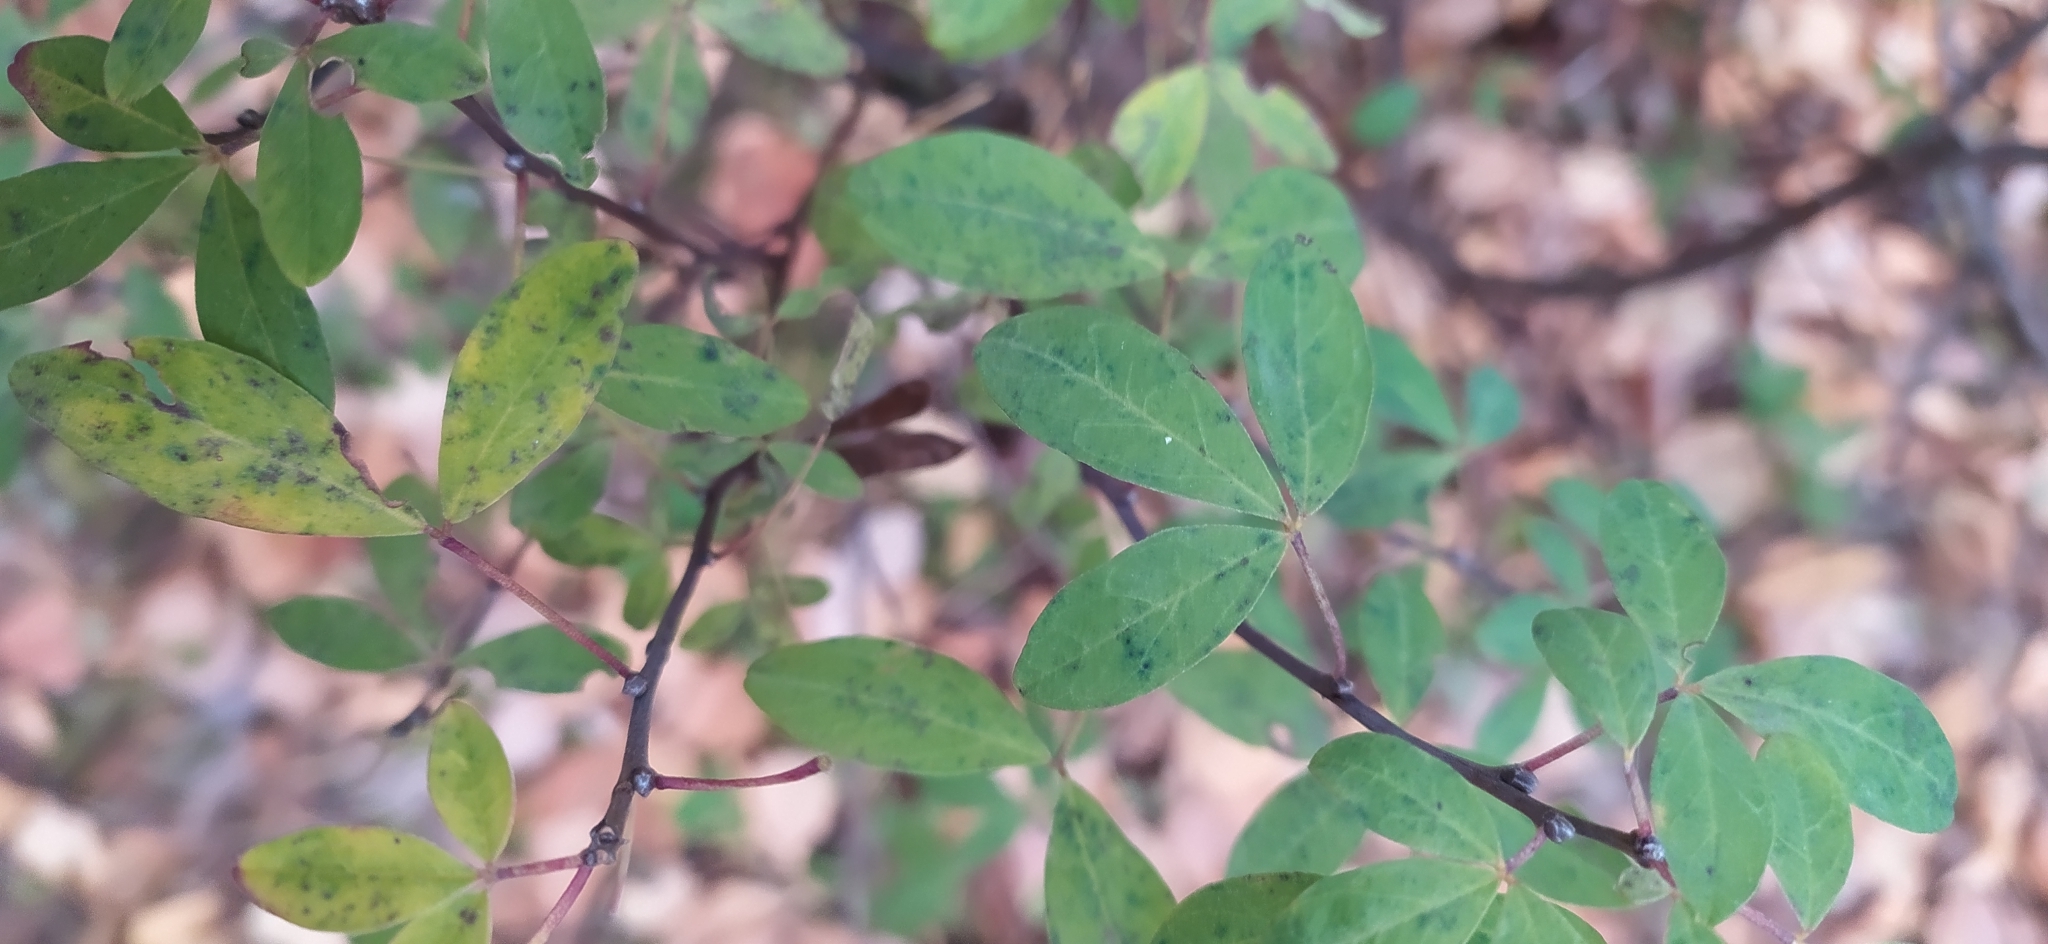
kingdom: Plantae
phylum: Tracheophyta
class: Magnoliopsida
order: Fabales
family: Fabaceae
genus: Chamaecytisus
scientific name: Chamaecytisus ruthenicus
